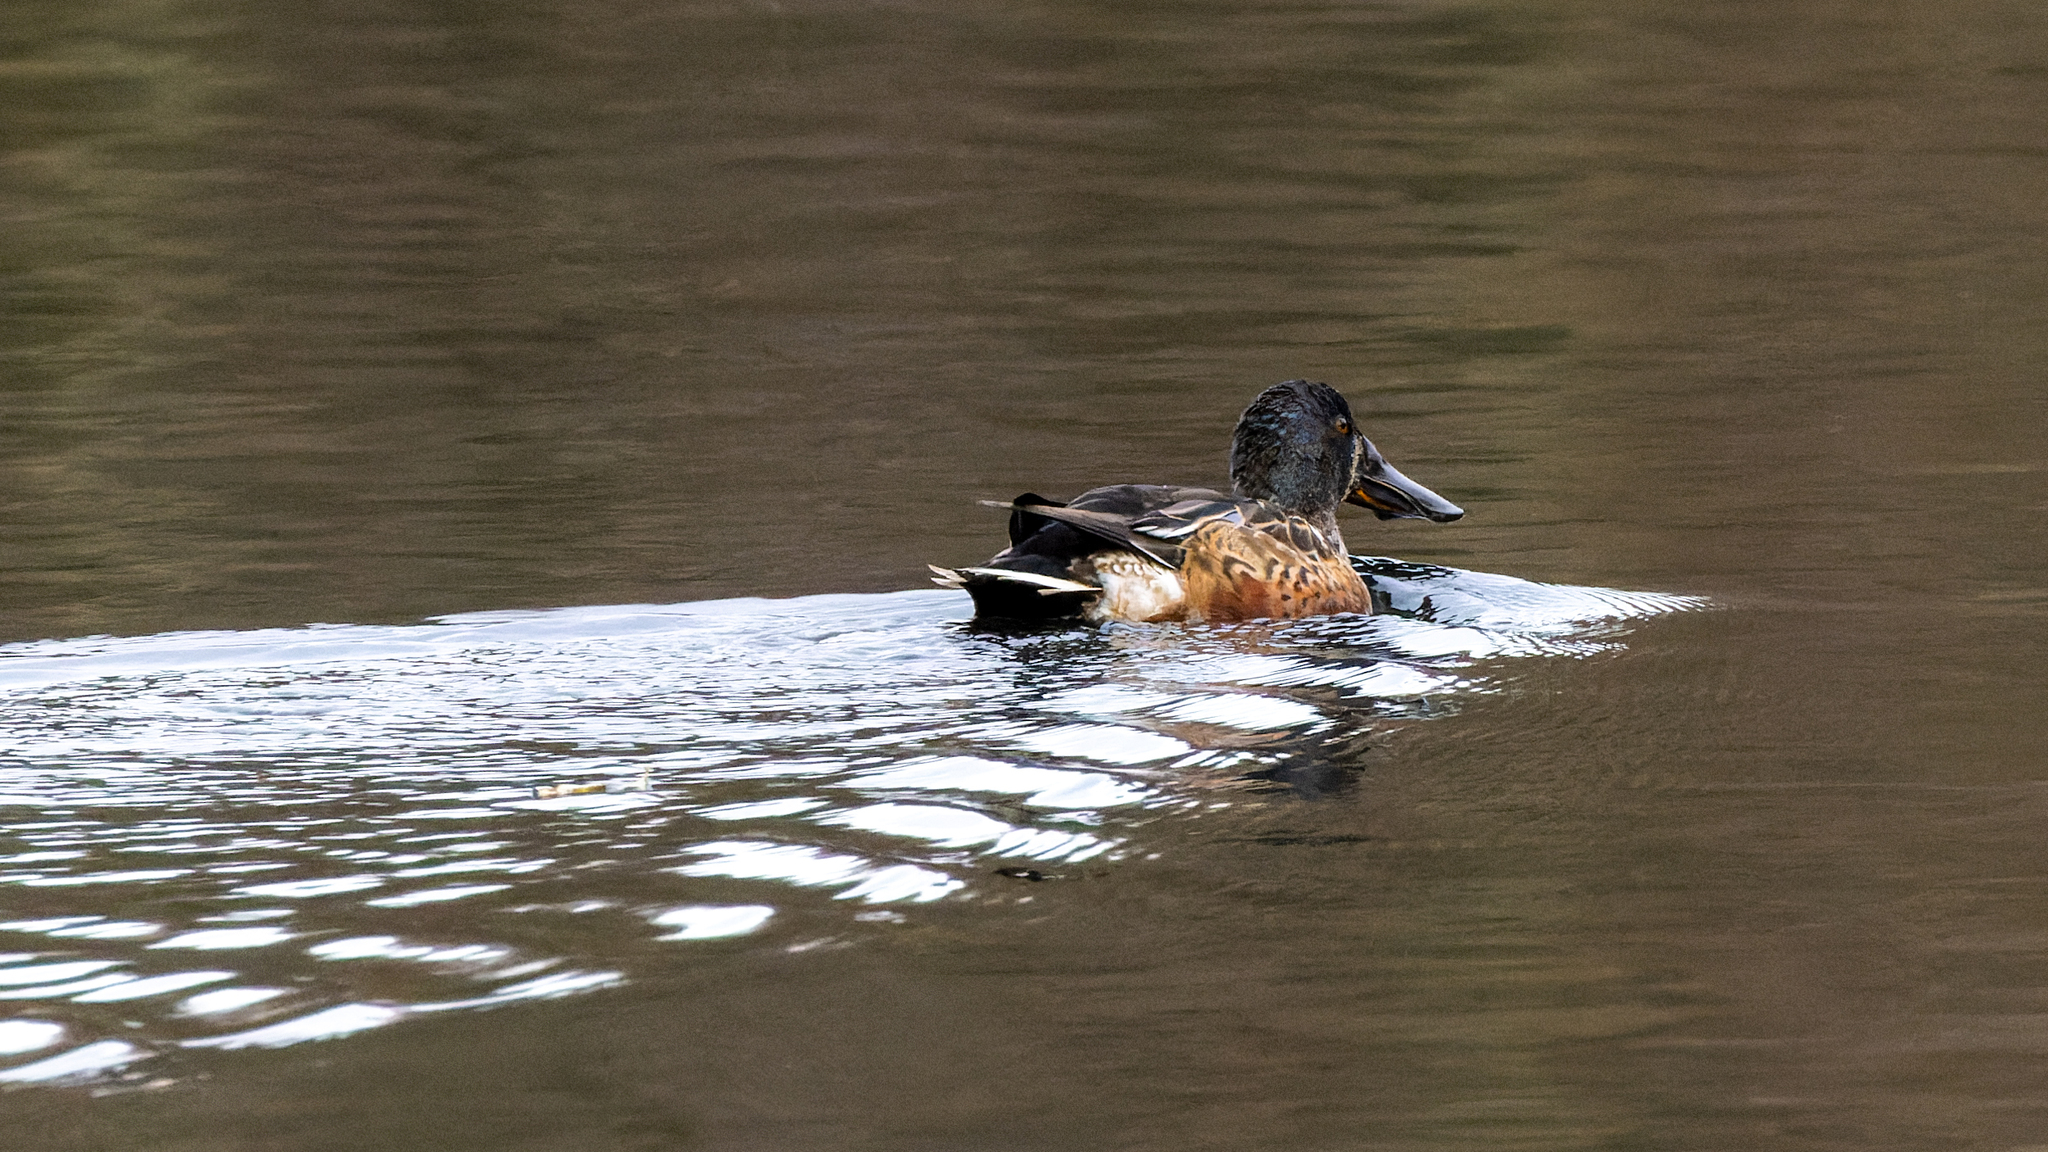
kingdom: Animalia
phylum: Chordata
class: Aves
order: Anseriformes
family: Anatidae
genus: Spatula
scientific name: Spatula clypeata
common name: Northern shoveler
